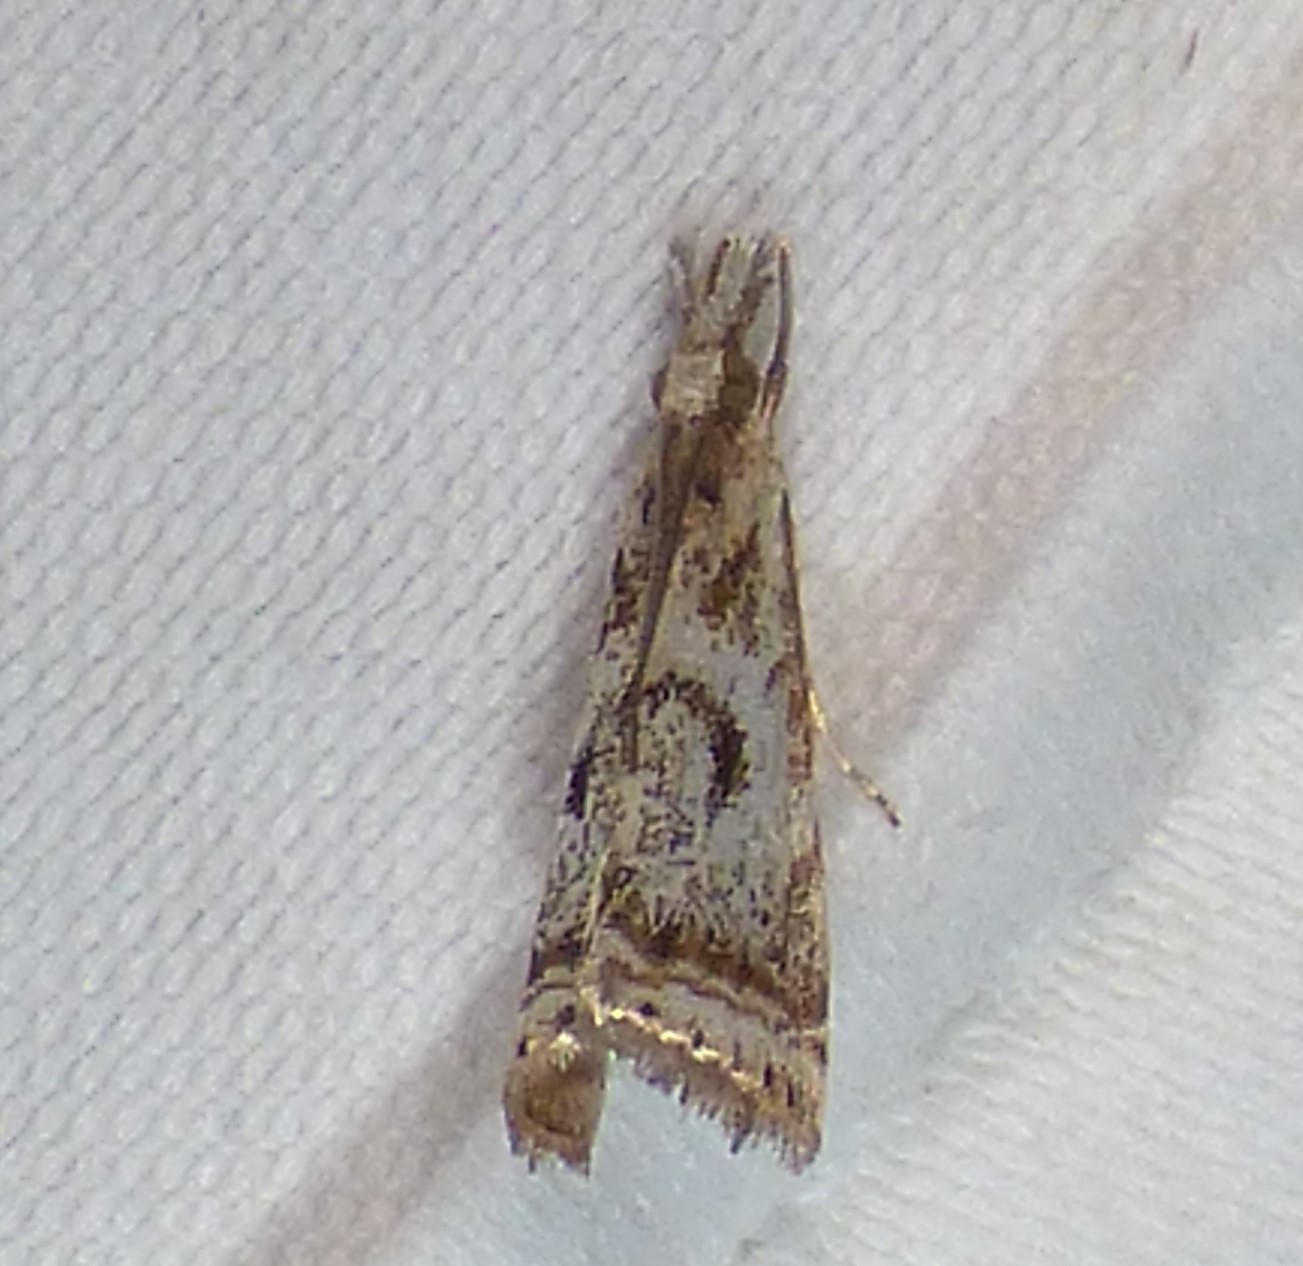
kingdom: Animalia
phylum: Arthropoda
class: Insecta
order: Lepidoptera
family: Crambidae
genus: Microcrambus
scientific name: Microcrambus elegans
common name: Elegant grass-veneer
